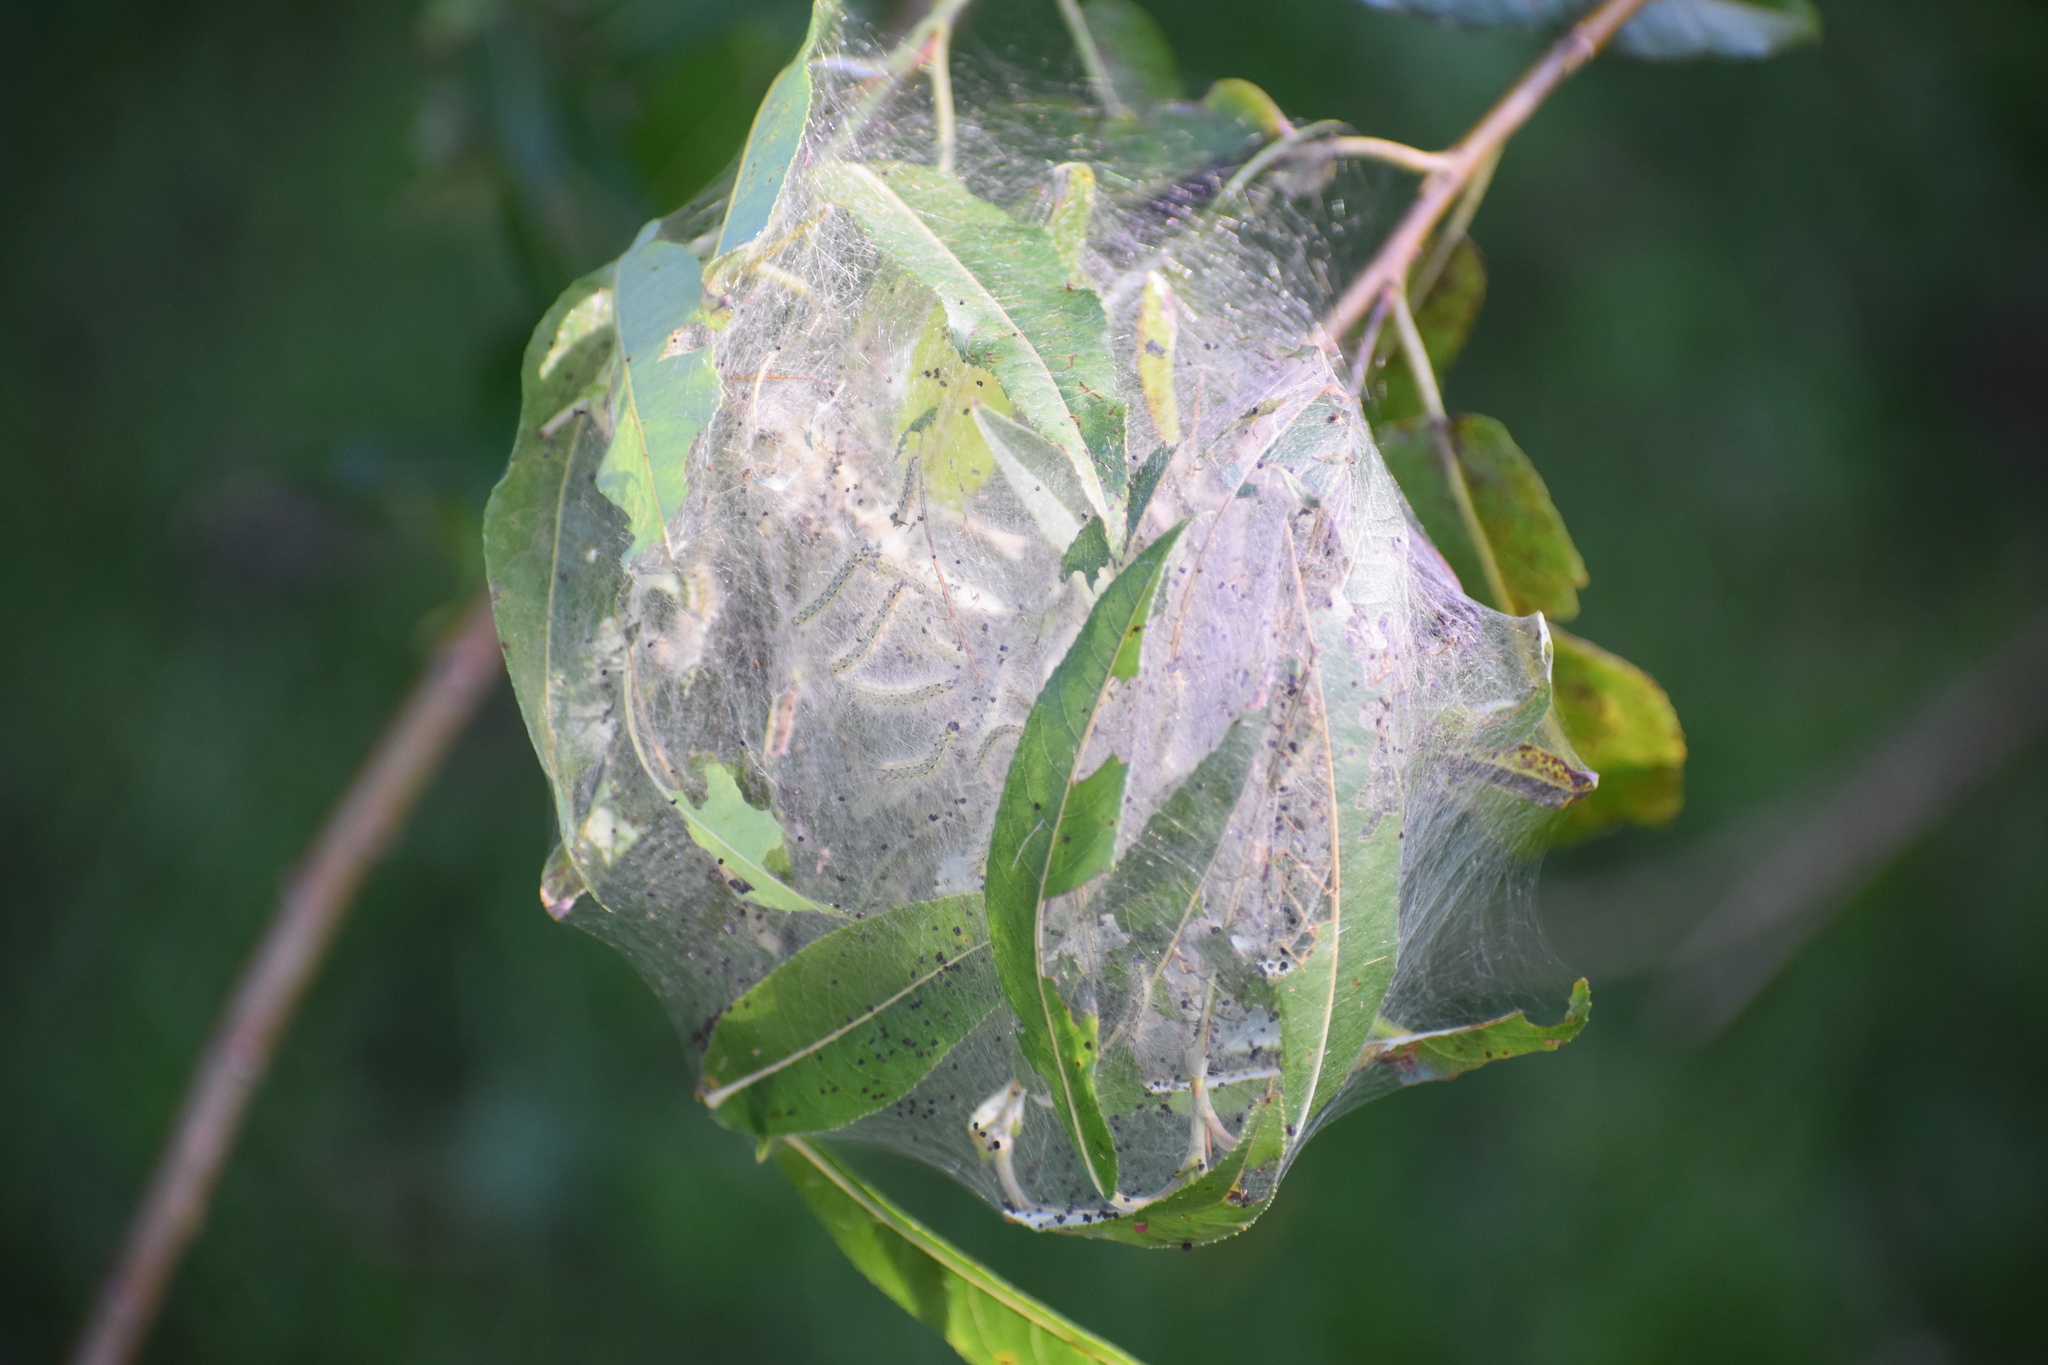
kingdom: Animalia
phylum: Arthropoda
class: Insecta
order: Lepidoptera
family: Erebidae
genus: Hyphantria
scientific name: Hyphantria cunea
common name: American white moth
